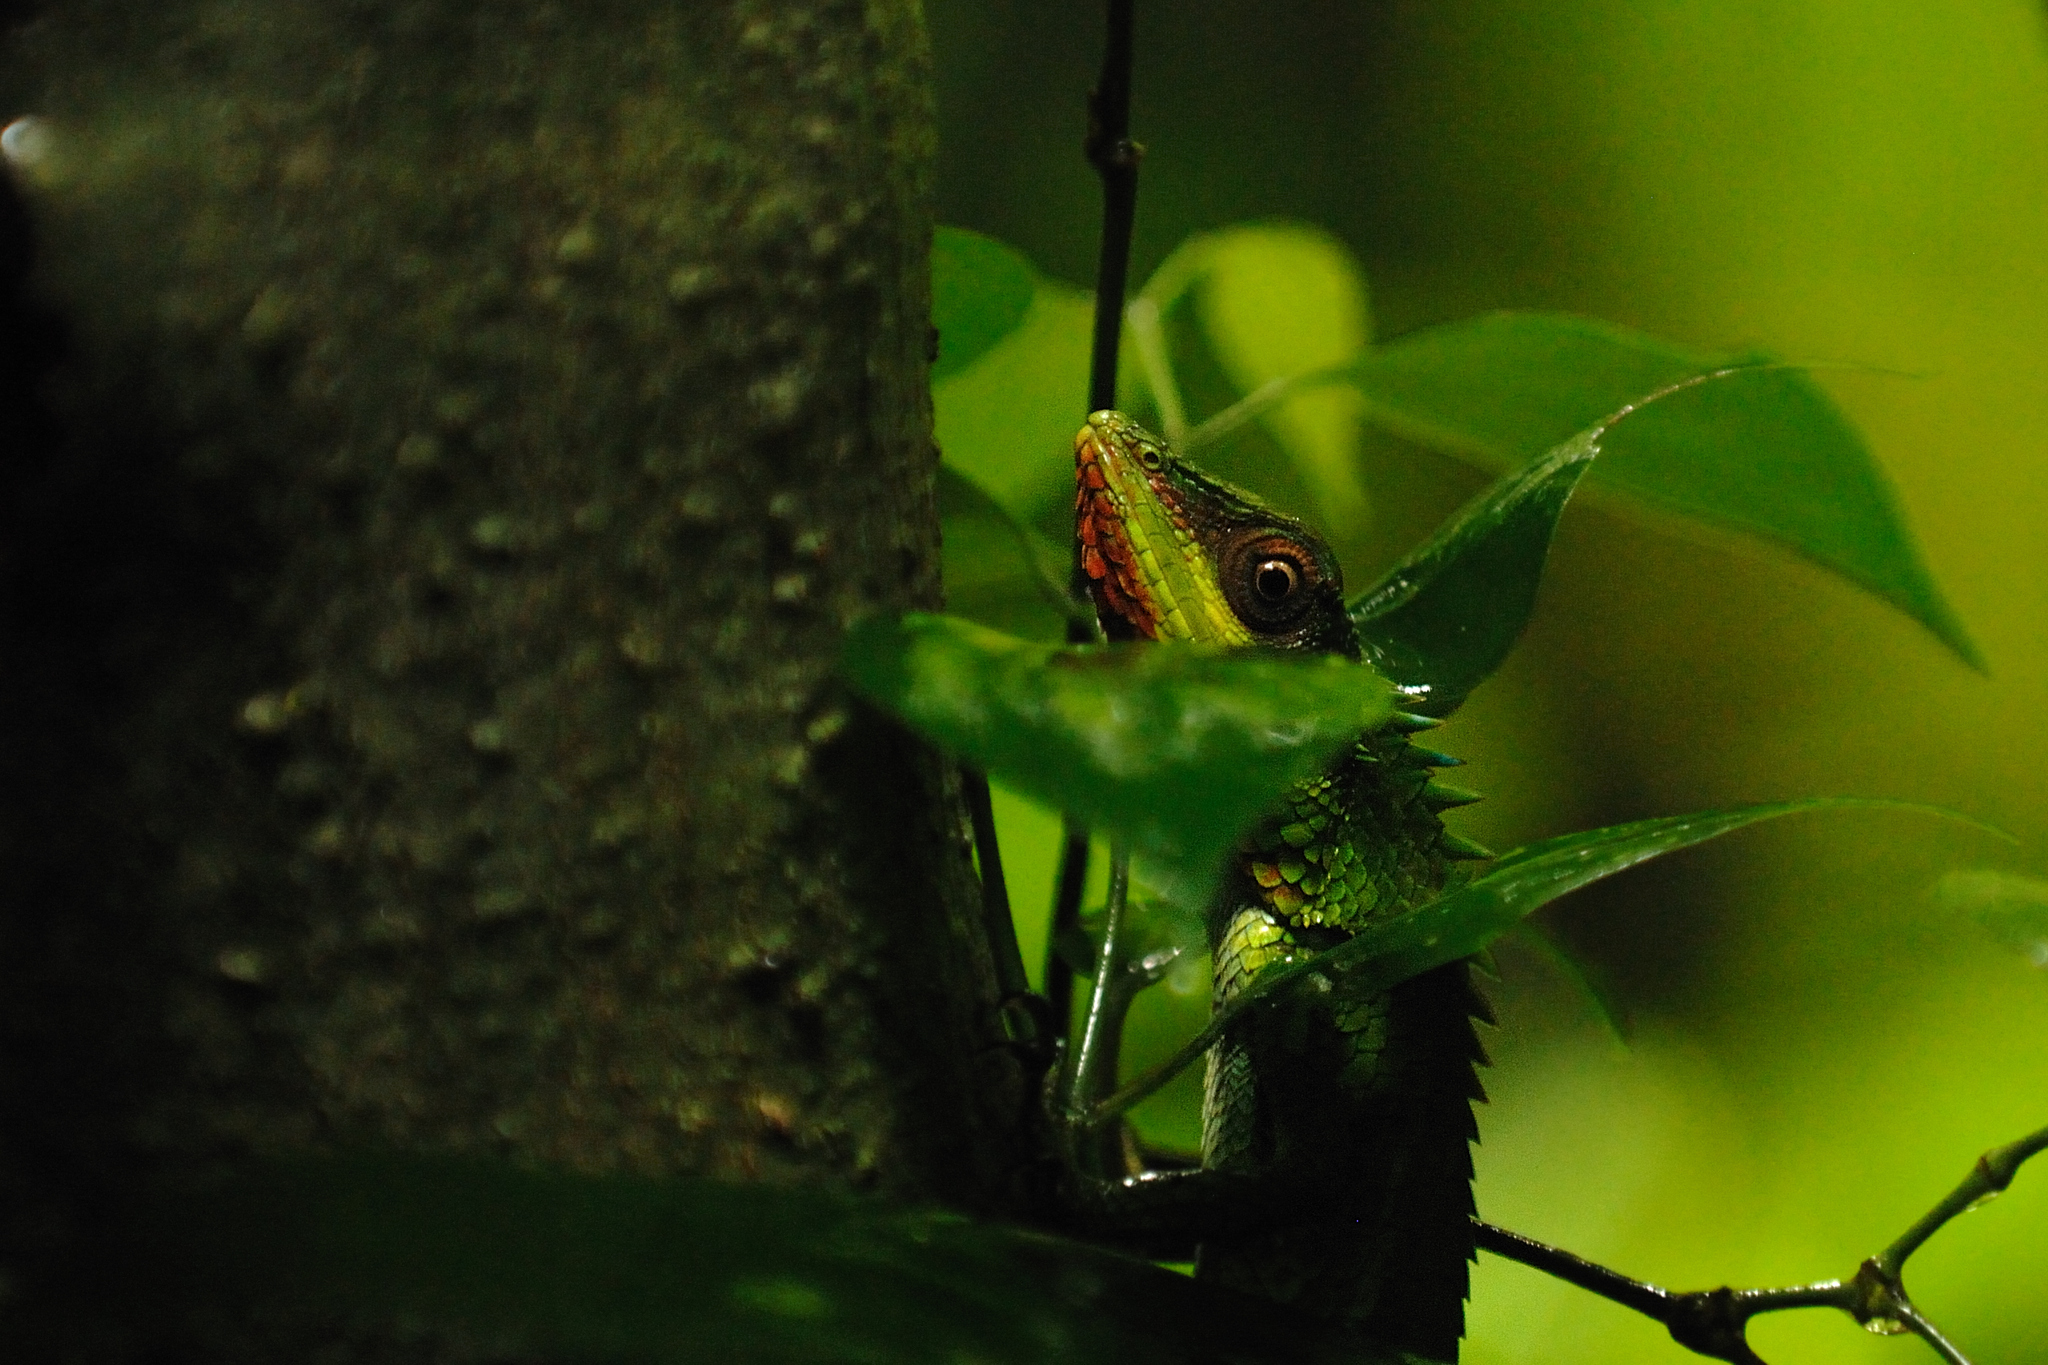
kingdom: Animalia
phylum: Chordata
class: Squamata
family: Agamidae
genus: Calotes
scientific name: Calotes grandisquamis
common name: Big scaled variable lizard
